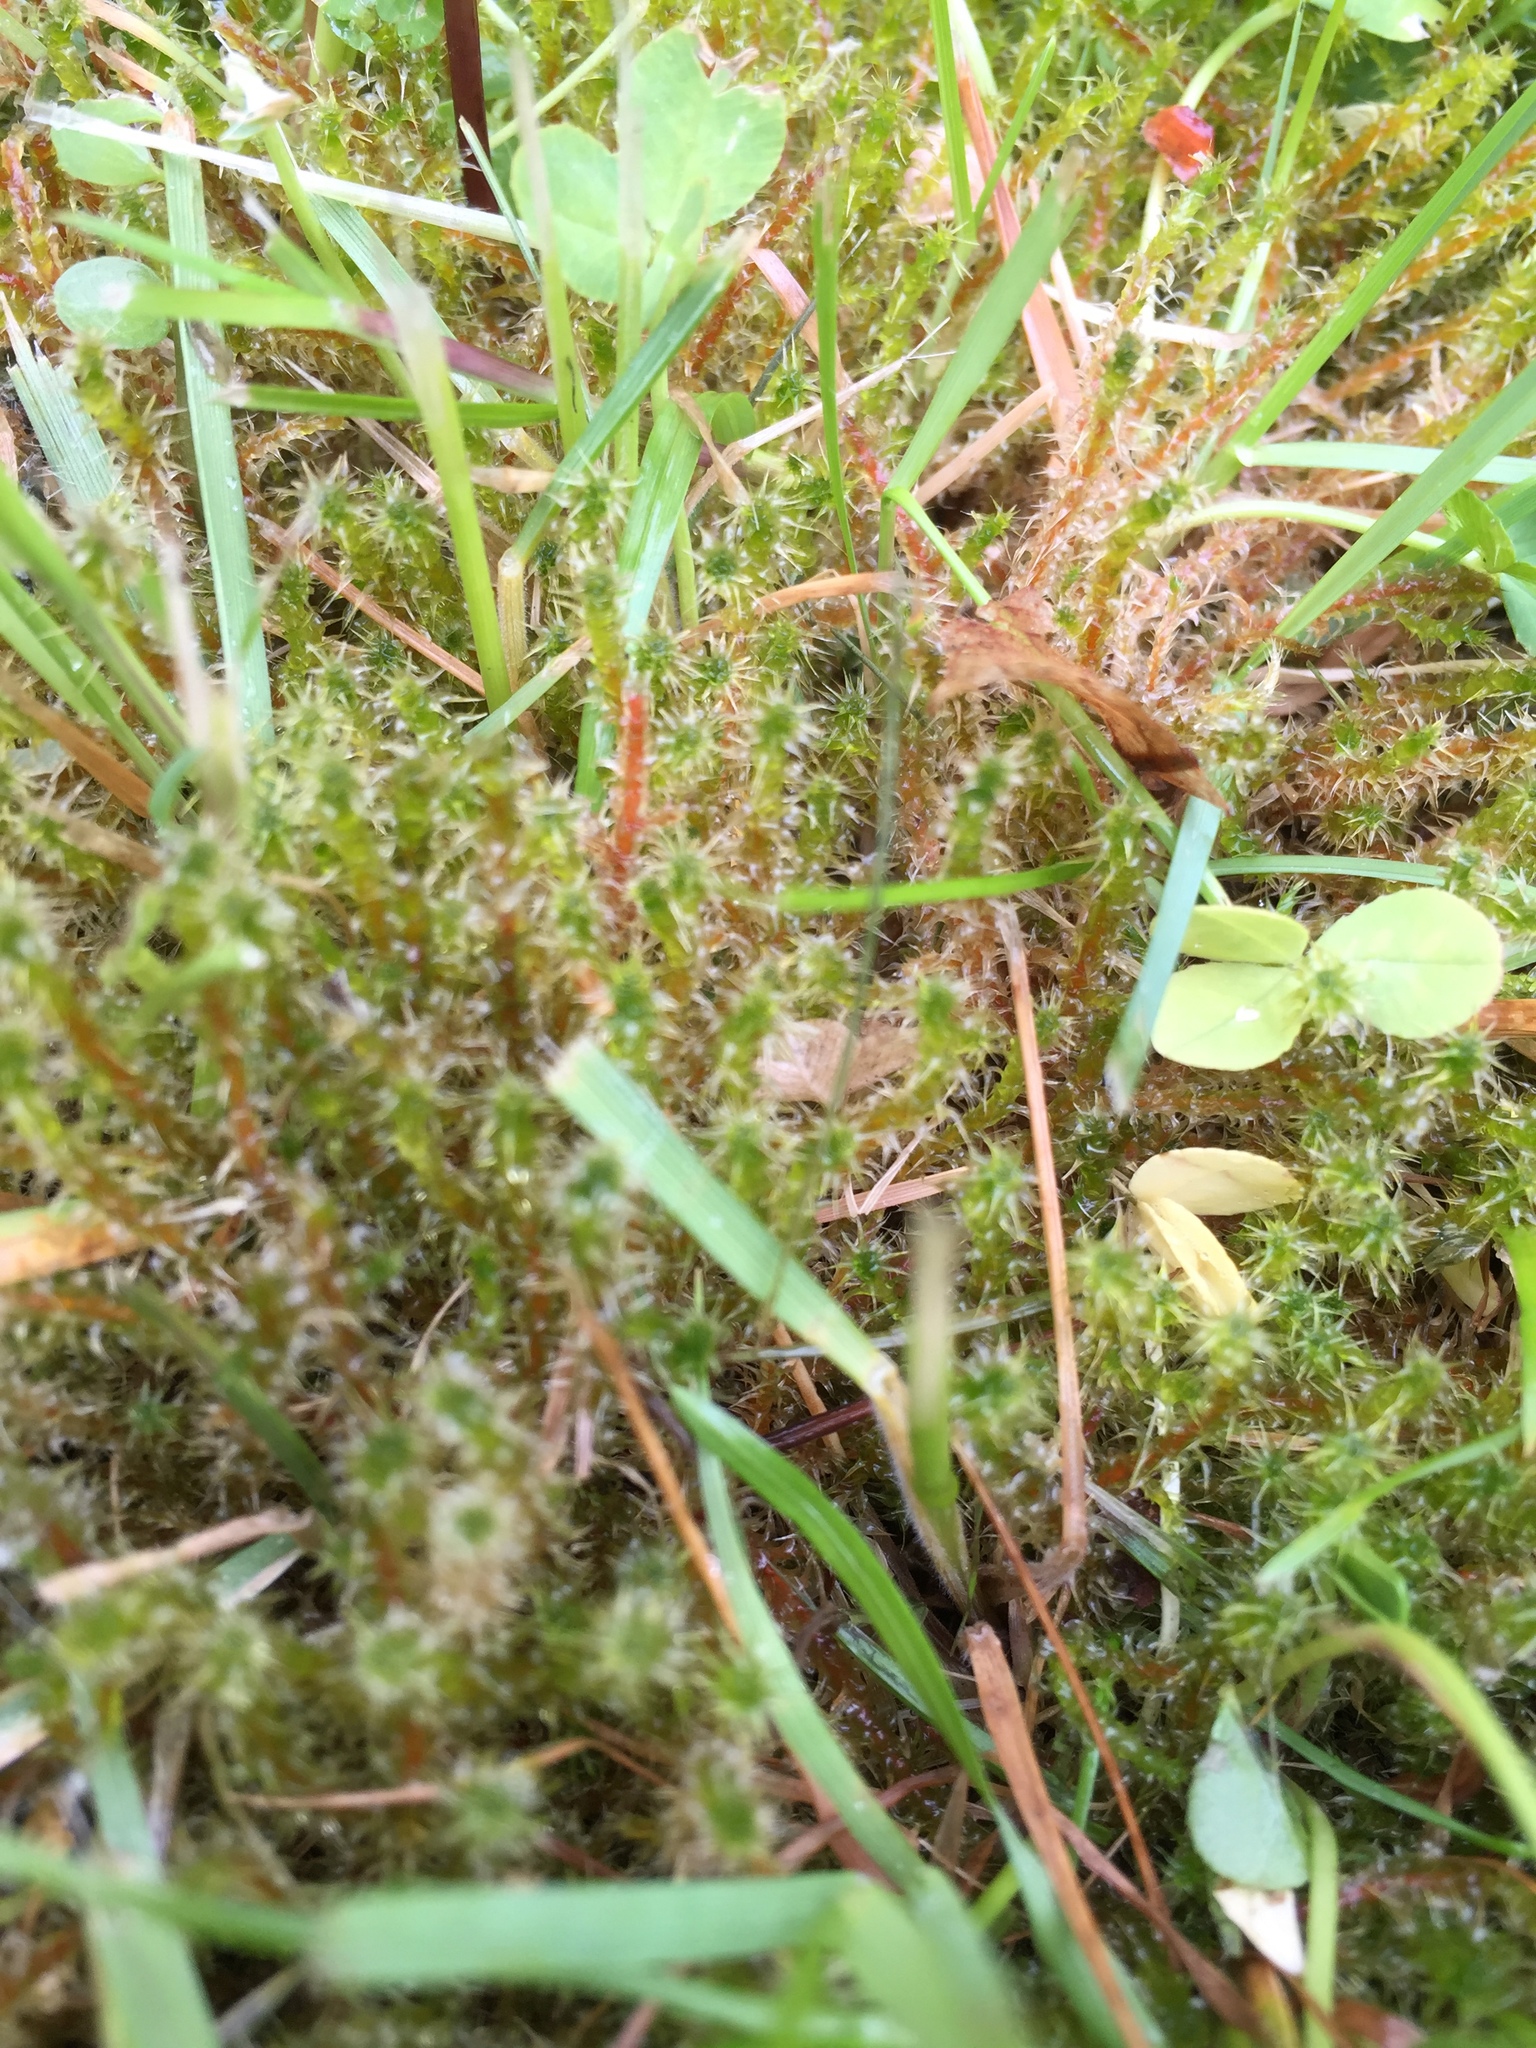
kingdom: Plantae
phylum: Bryophyta
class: Bryopsida
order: Hypnales
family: Hylocomiaceae
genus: Rhytidiadelphus
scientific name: Rhytidiadelphus squarrosus
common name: Springy turf-moss
